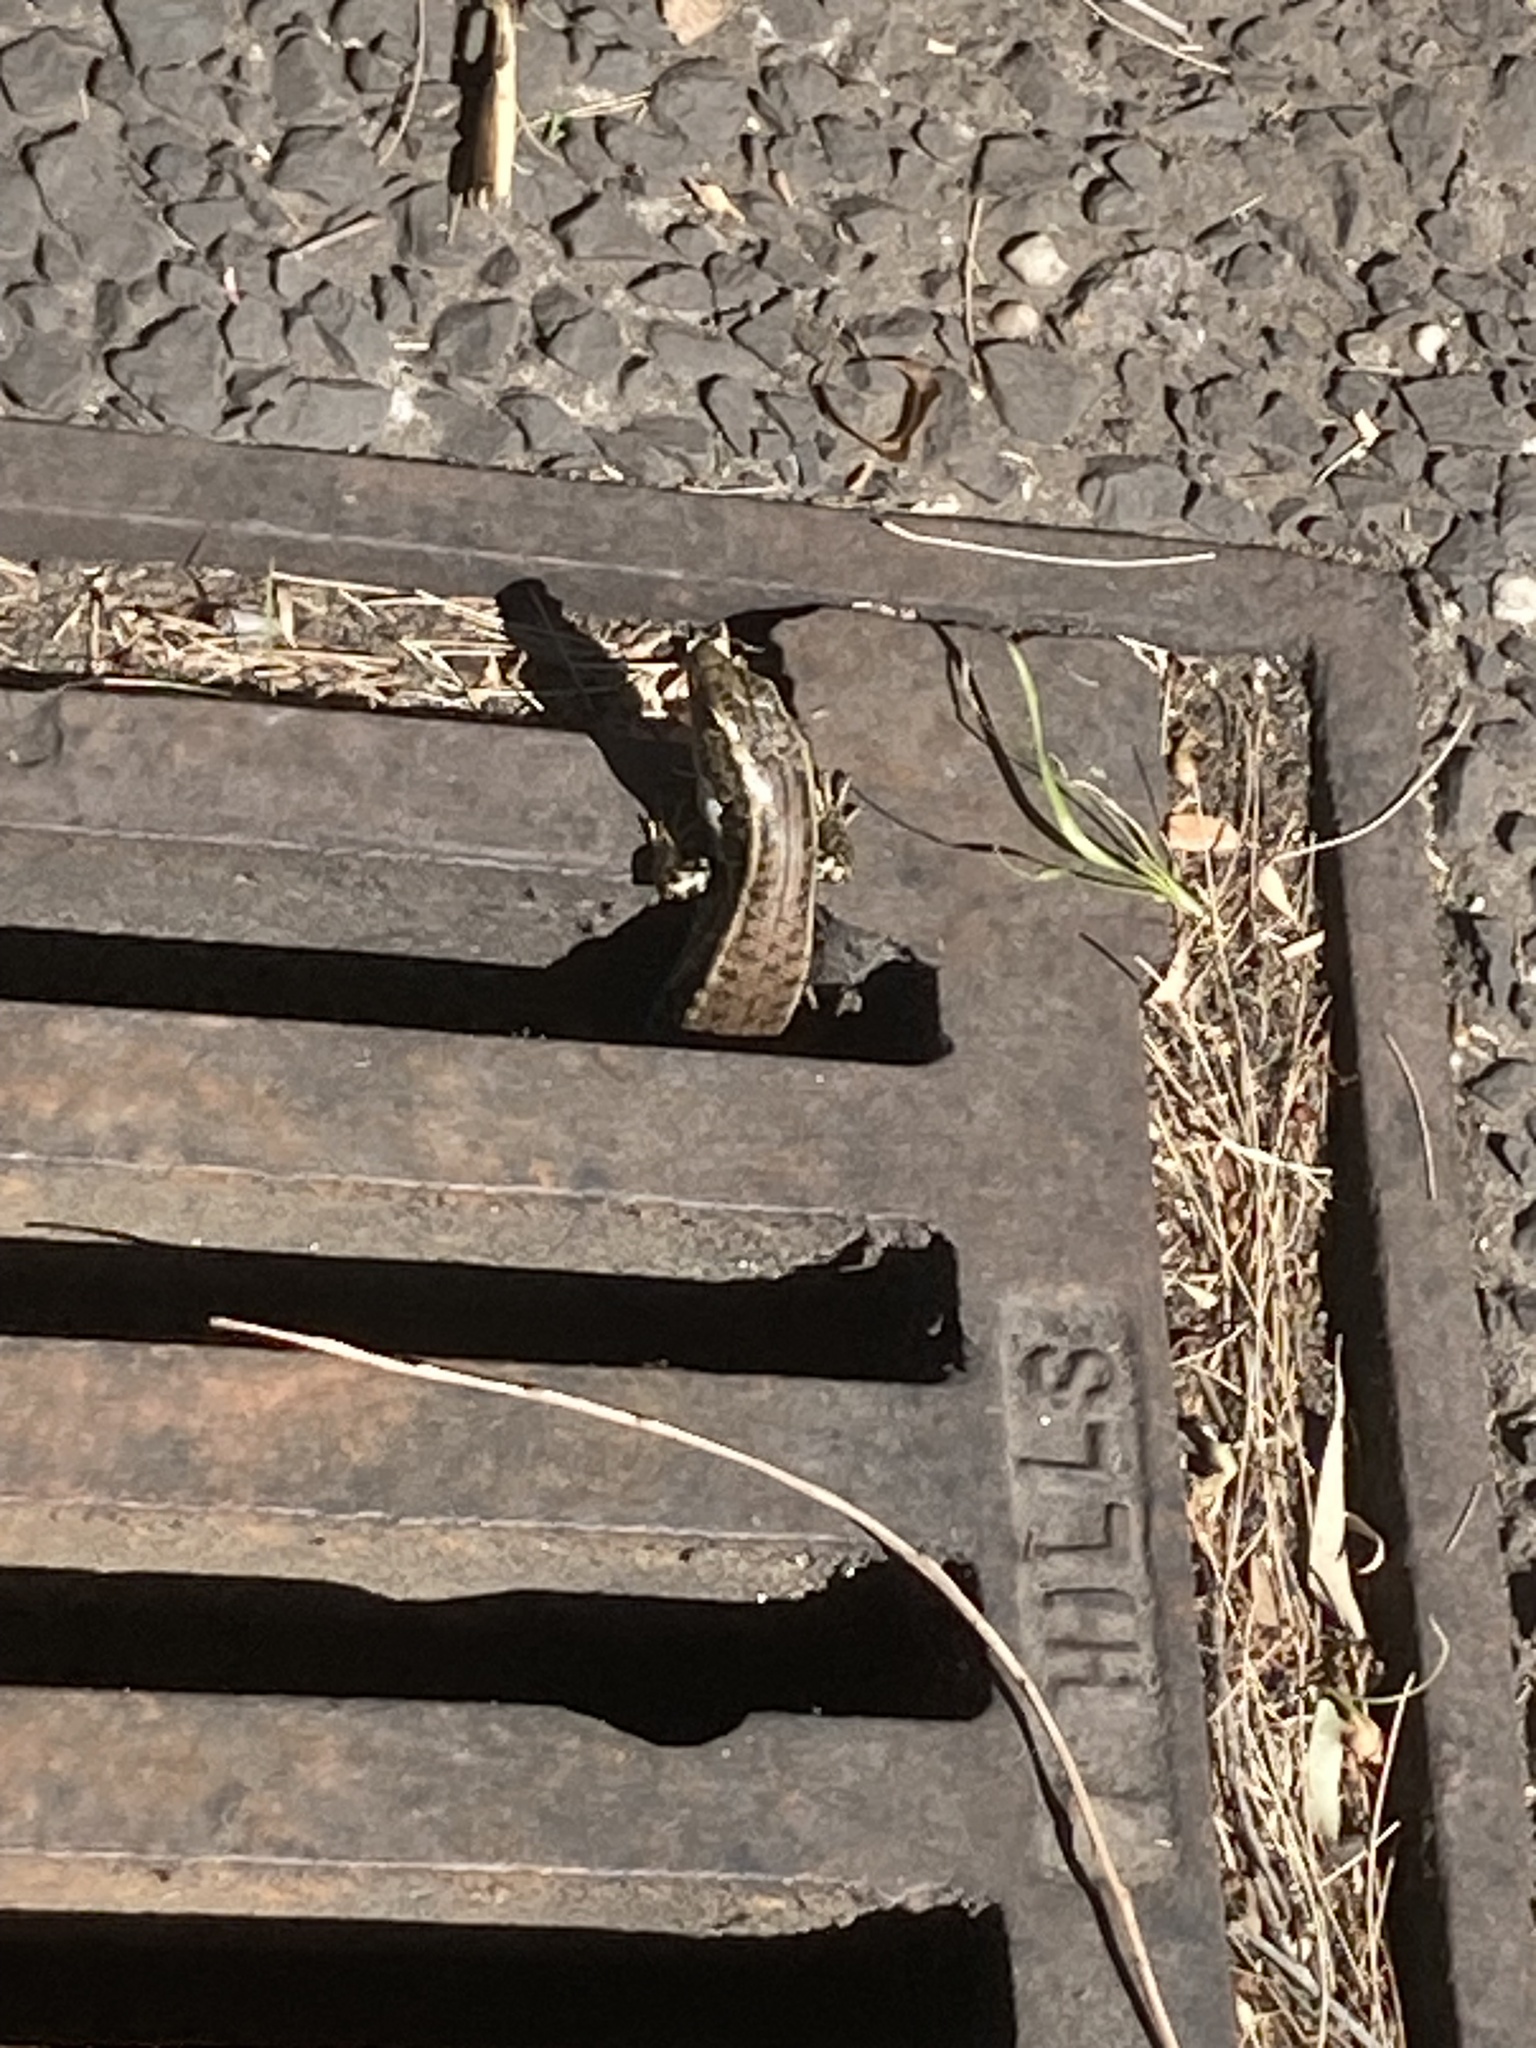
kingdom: Animalia
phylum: Chordata
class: Squamata
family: Scincidae
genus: Eulamprus
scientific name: Eulamprus quoyii
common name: Eastern water skink
